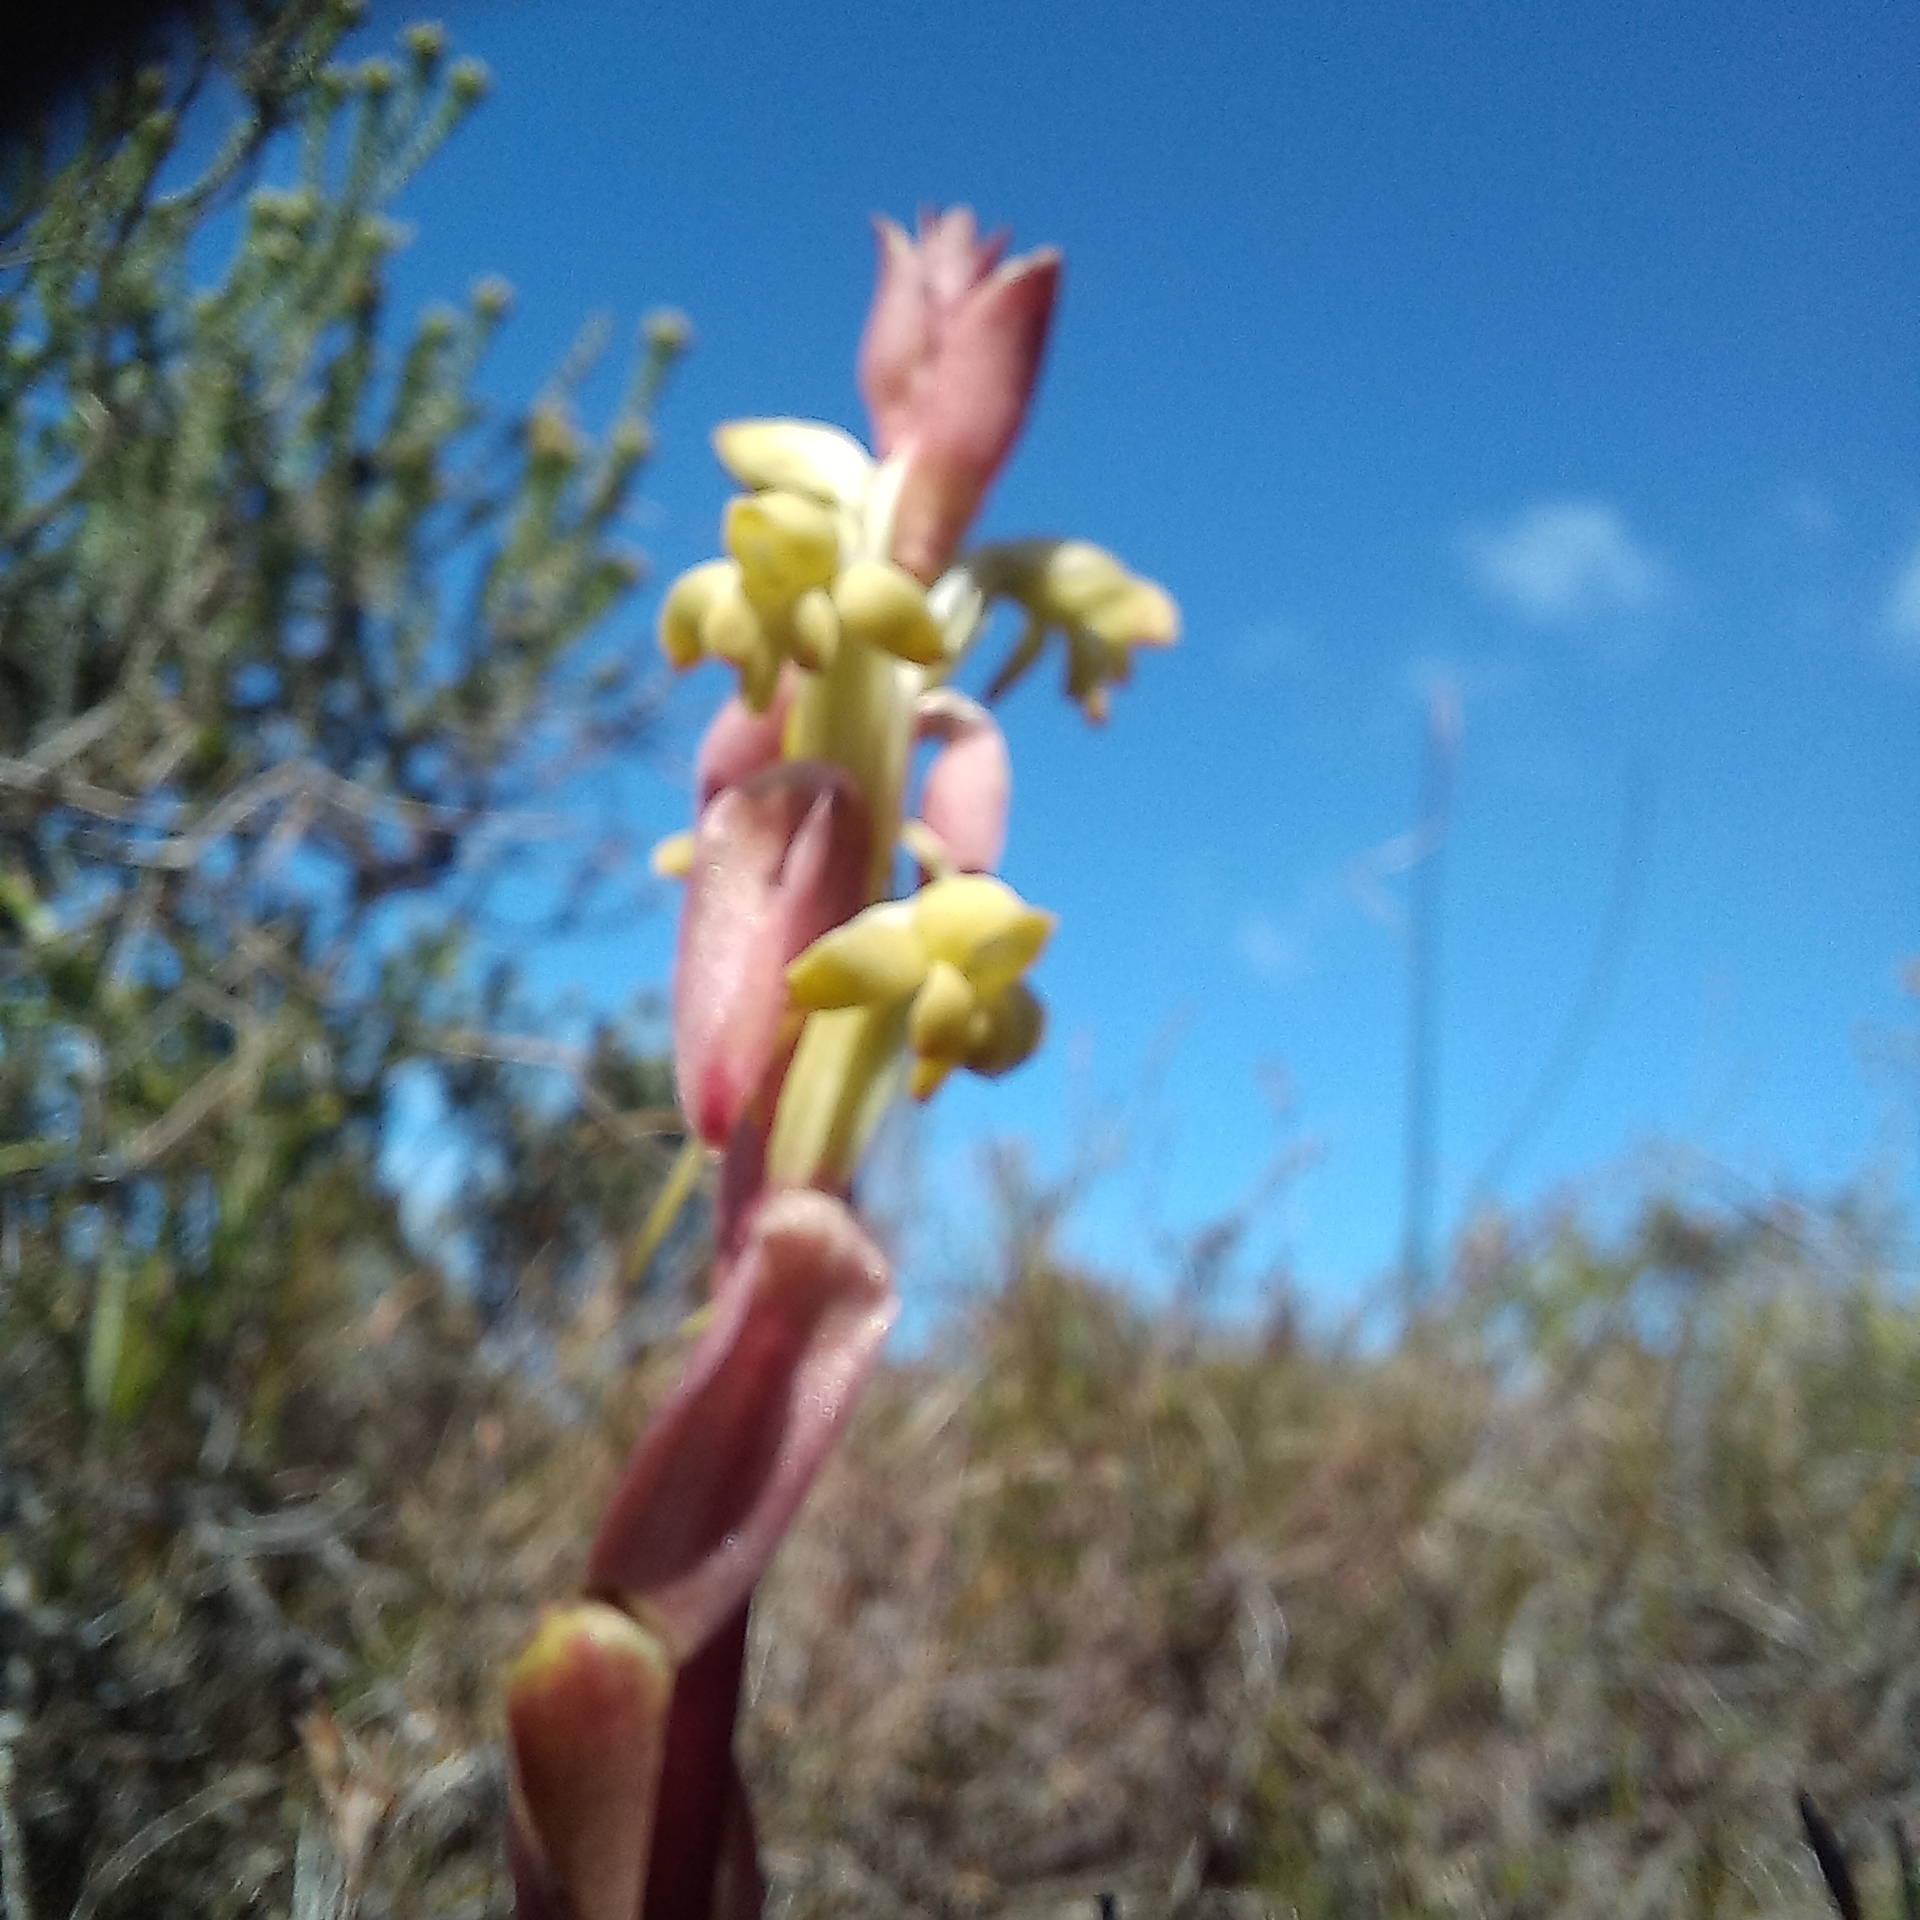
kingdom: Plantae
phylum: Tracheophyta
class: Liliopsida
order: Asparagales
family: Orchidaceae
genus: Satyrium
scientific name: Satyrium bicorne
